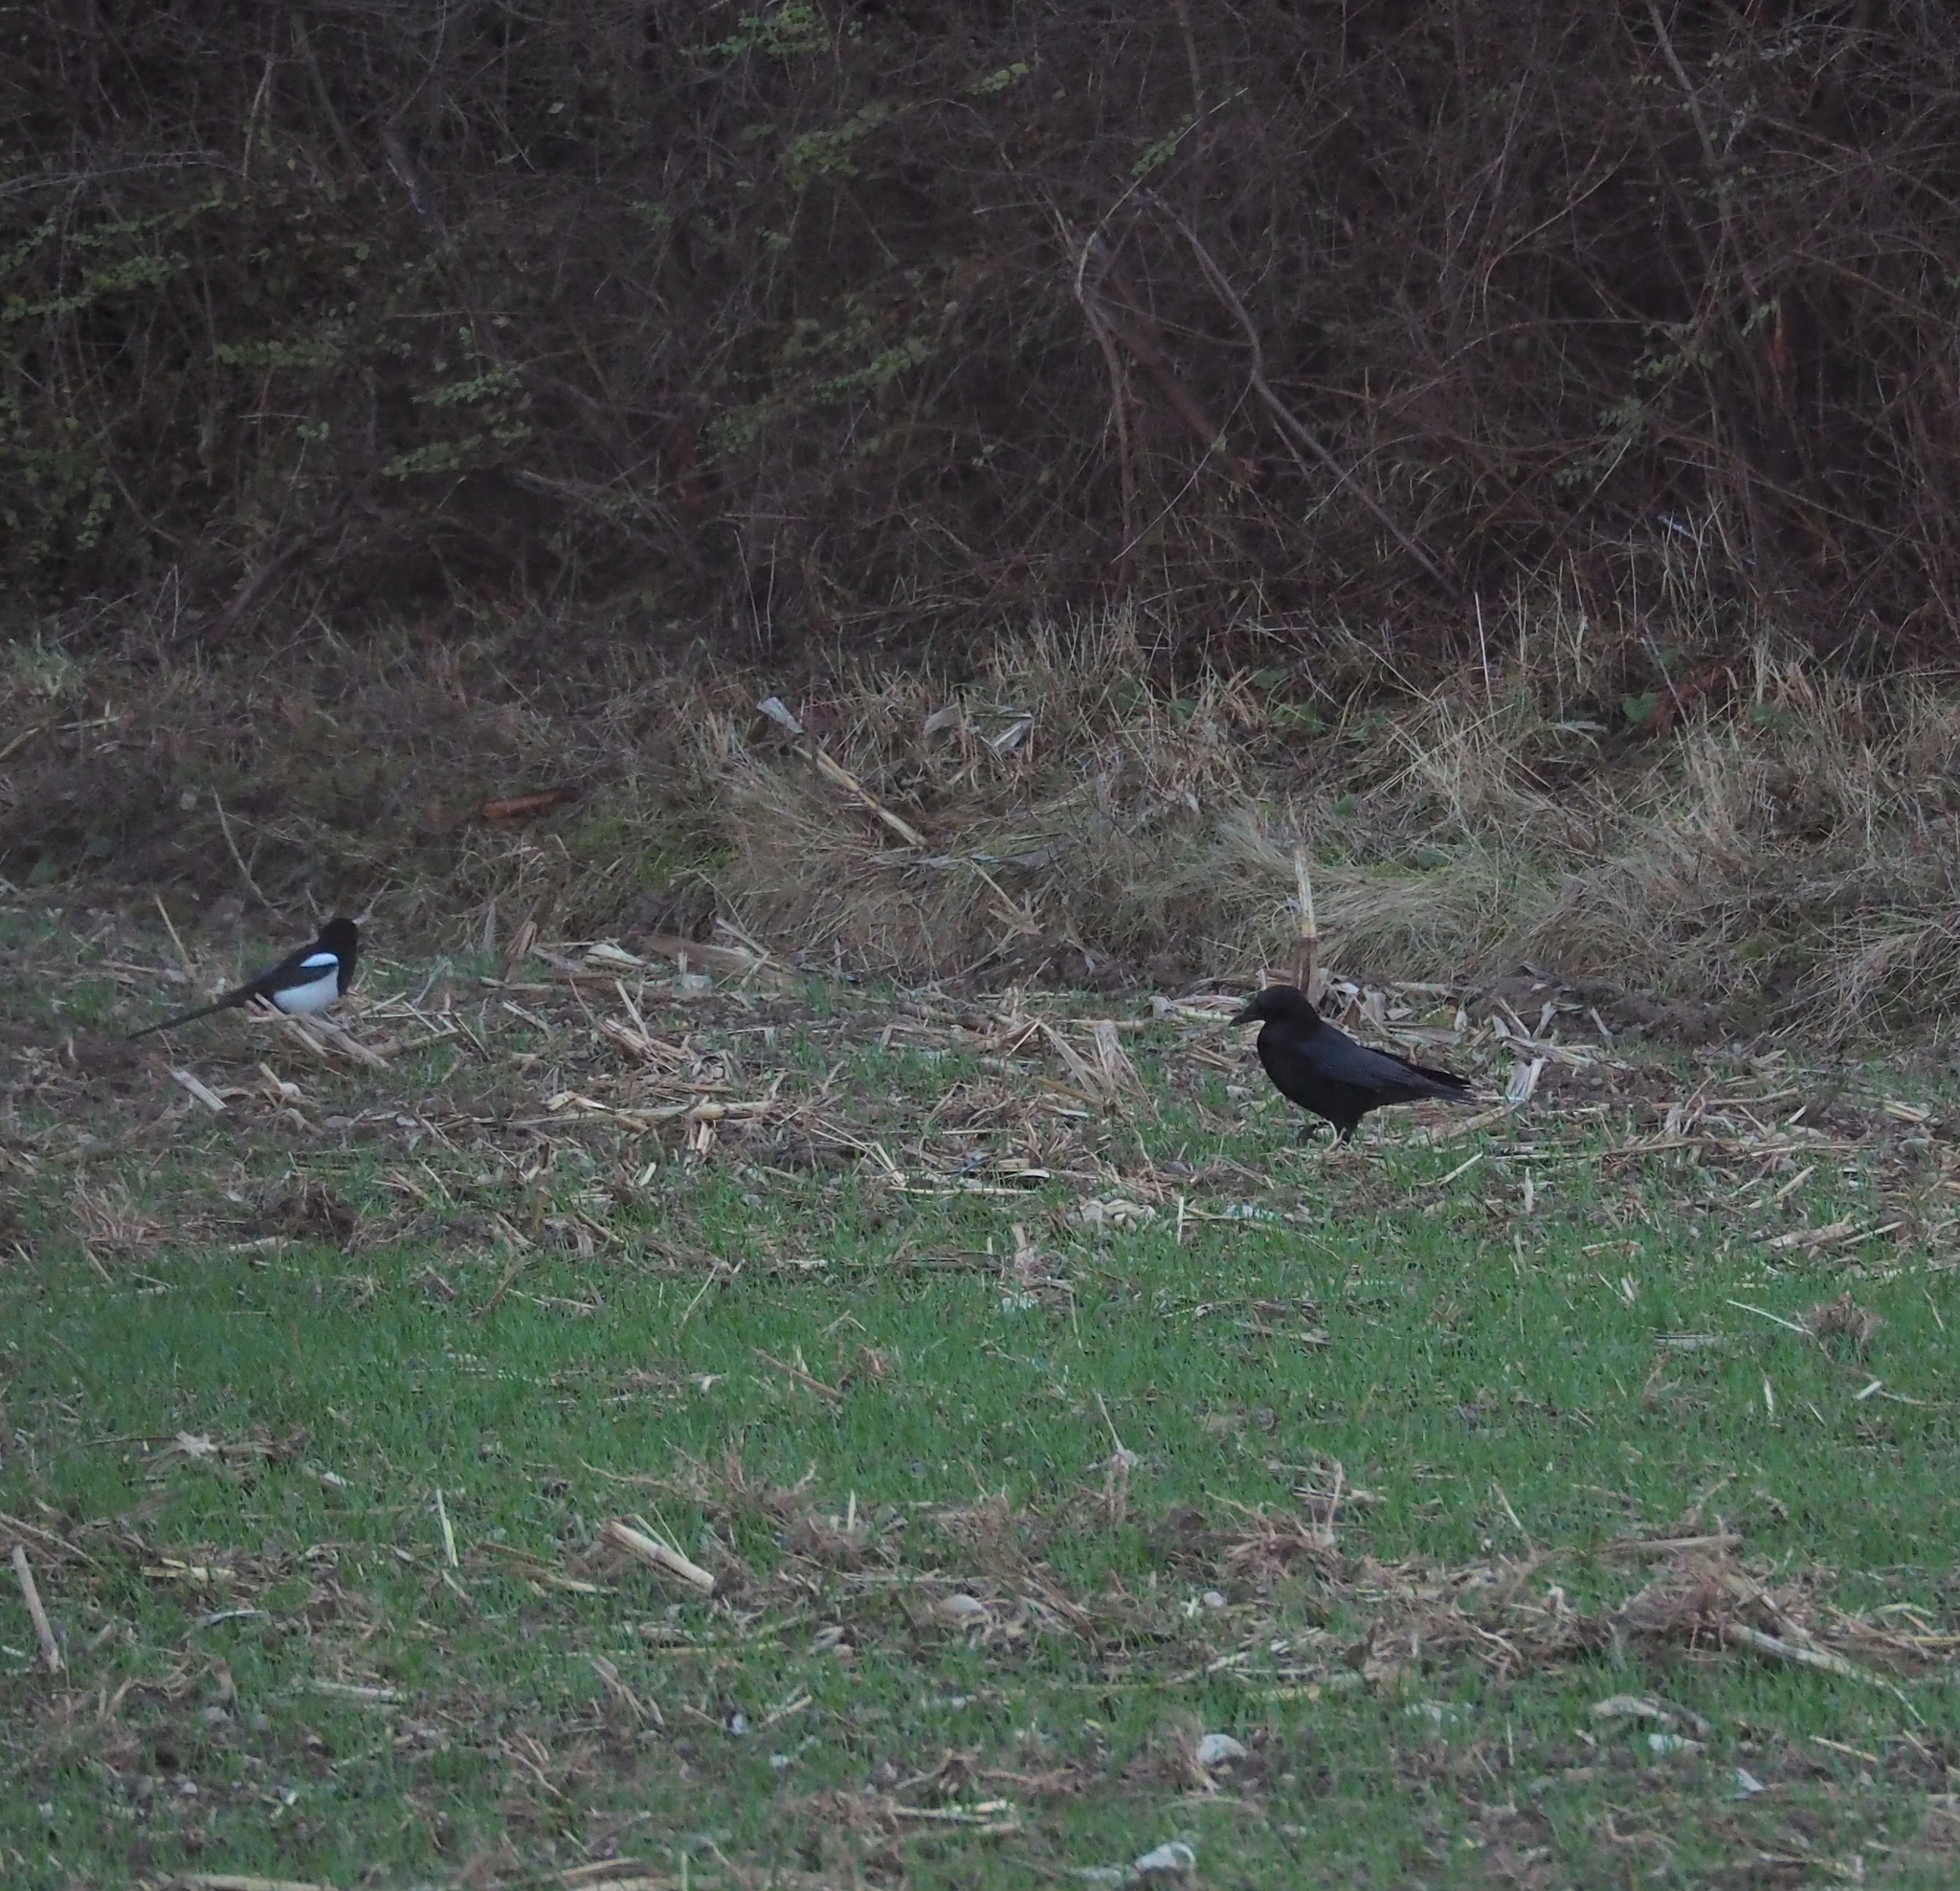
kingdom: Animalia
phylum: Chordata
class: Aves
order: Passeriformes
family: Corvidae
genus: Corvus
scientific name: Corvus corone
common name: Carrion crow
